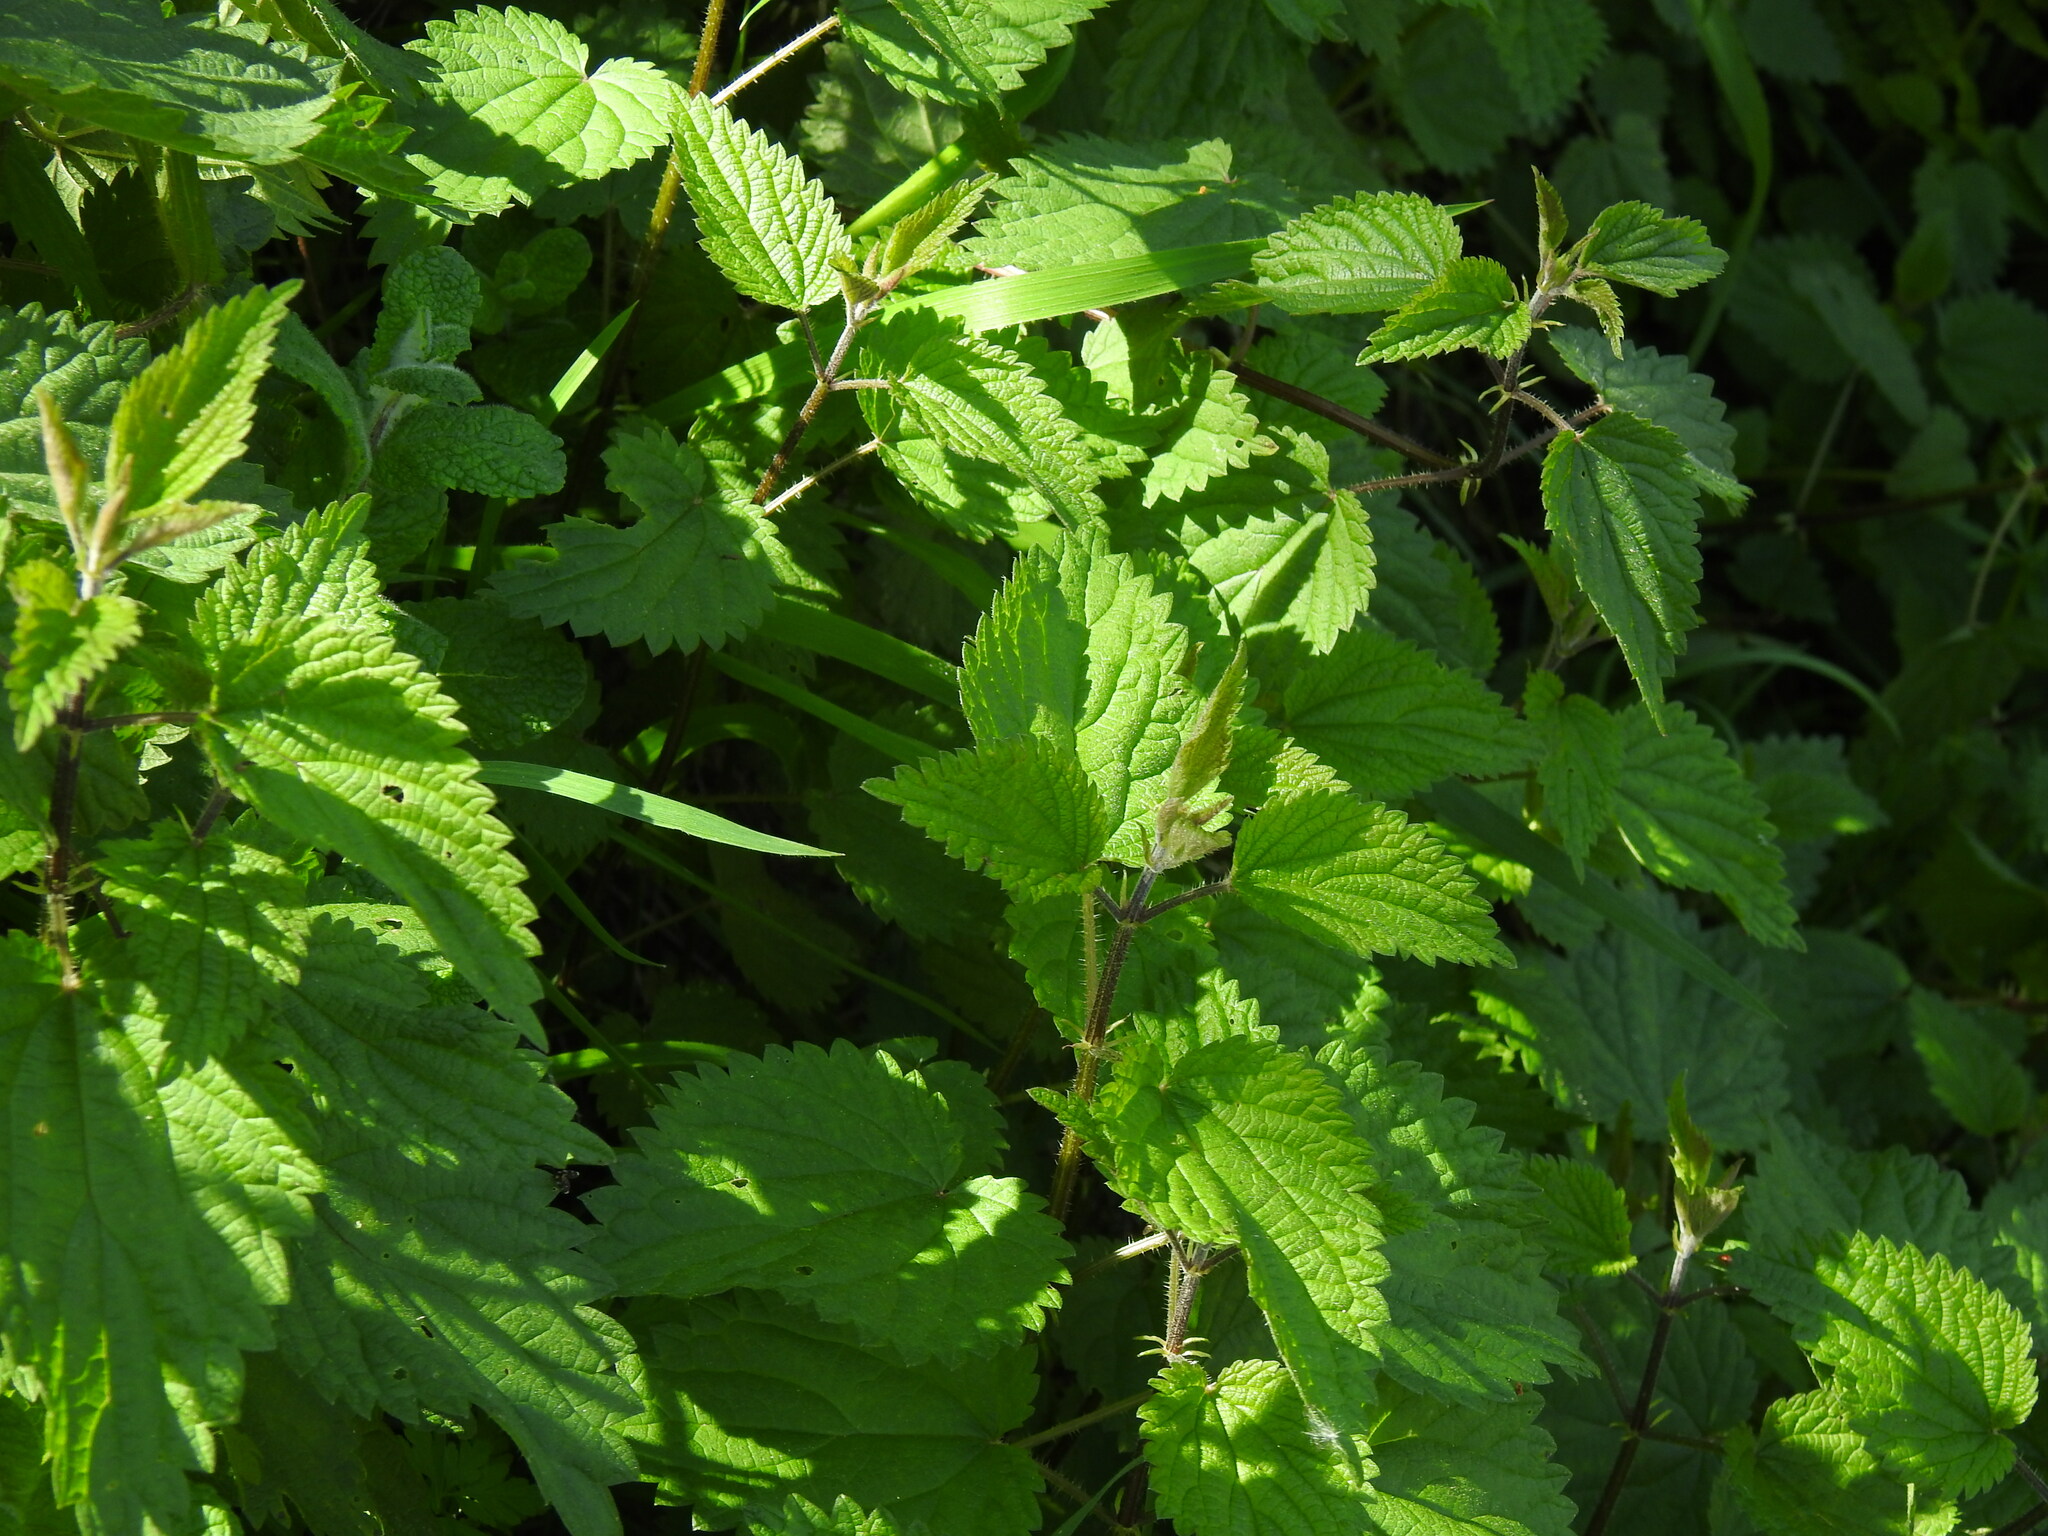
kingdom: Plantae
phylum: Tracheophyta
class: Magnoliopsida
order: Rosales
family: Urticaceae
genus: Urtica
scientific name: Urtica dioica
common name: Common nettle
